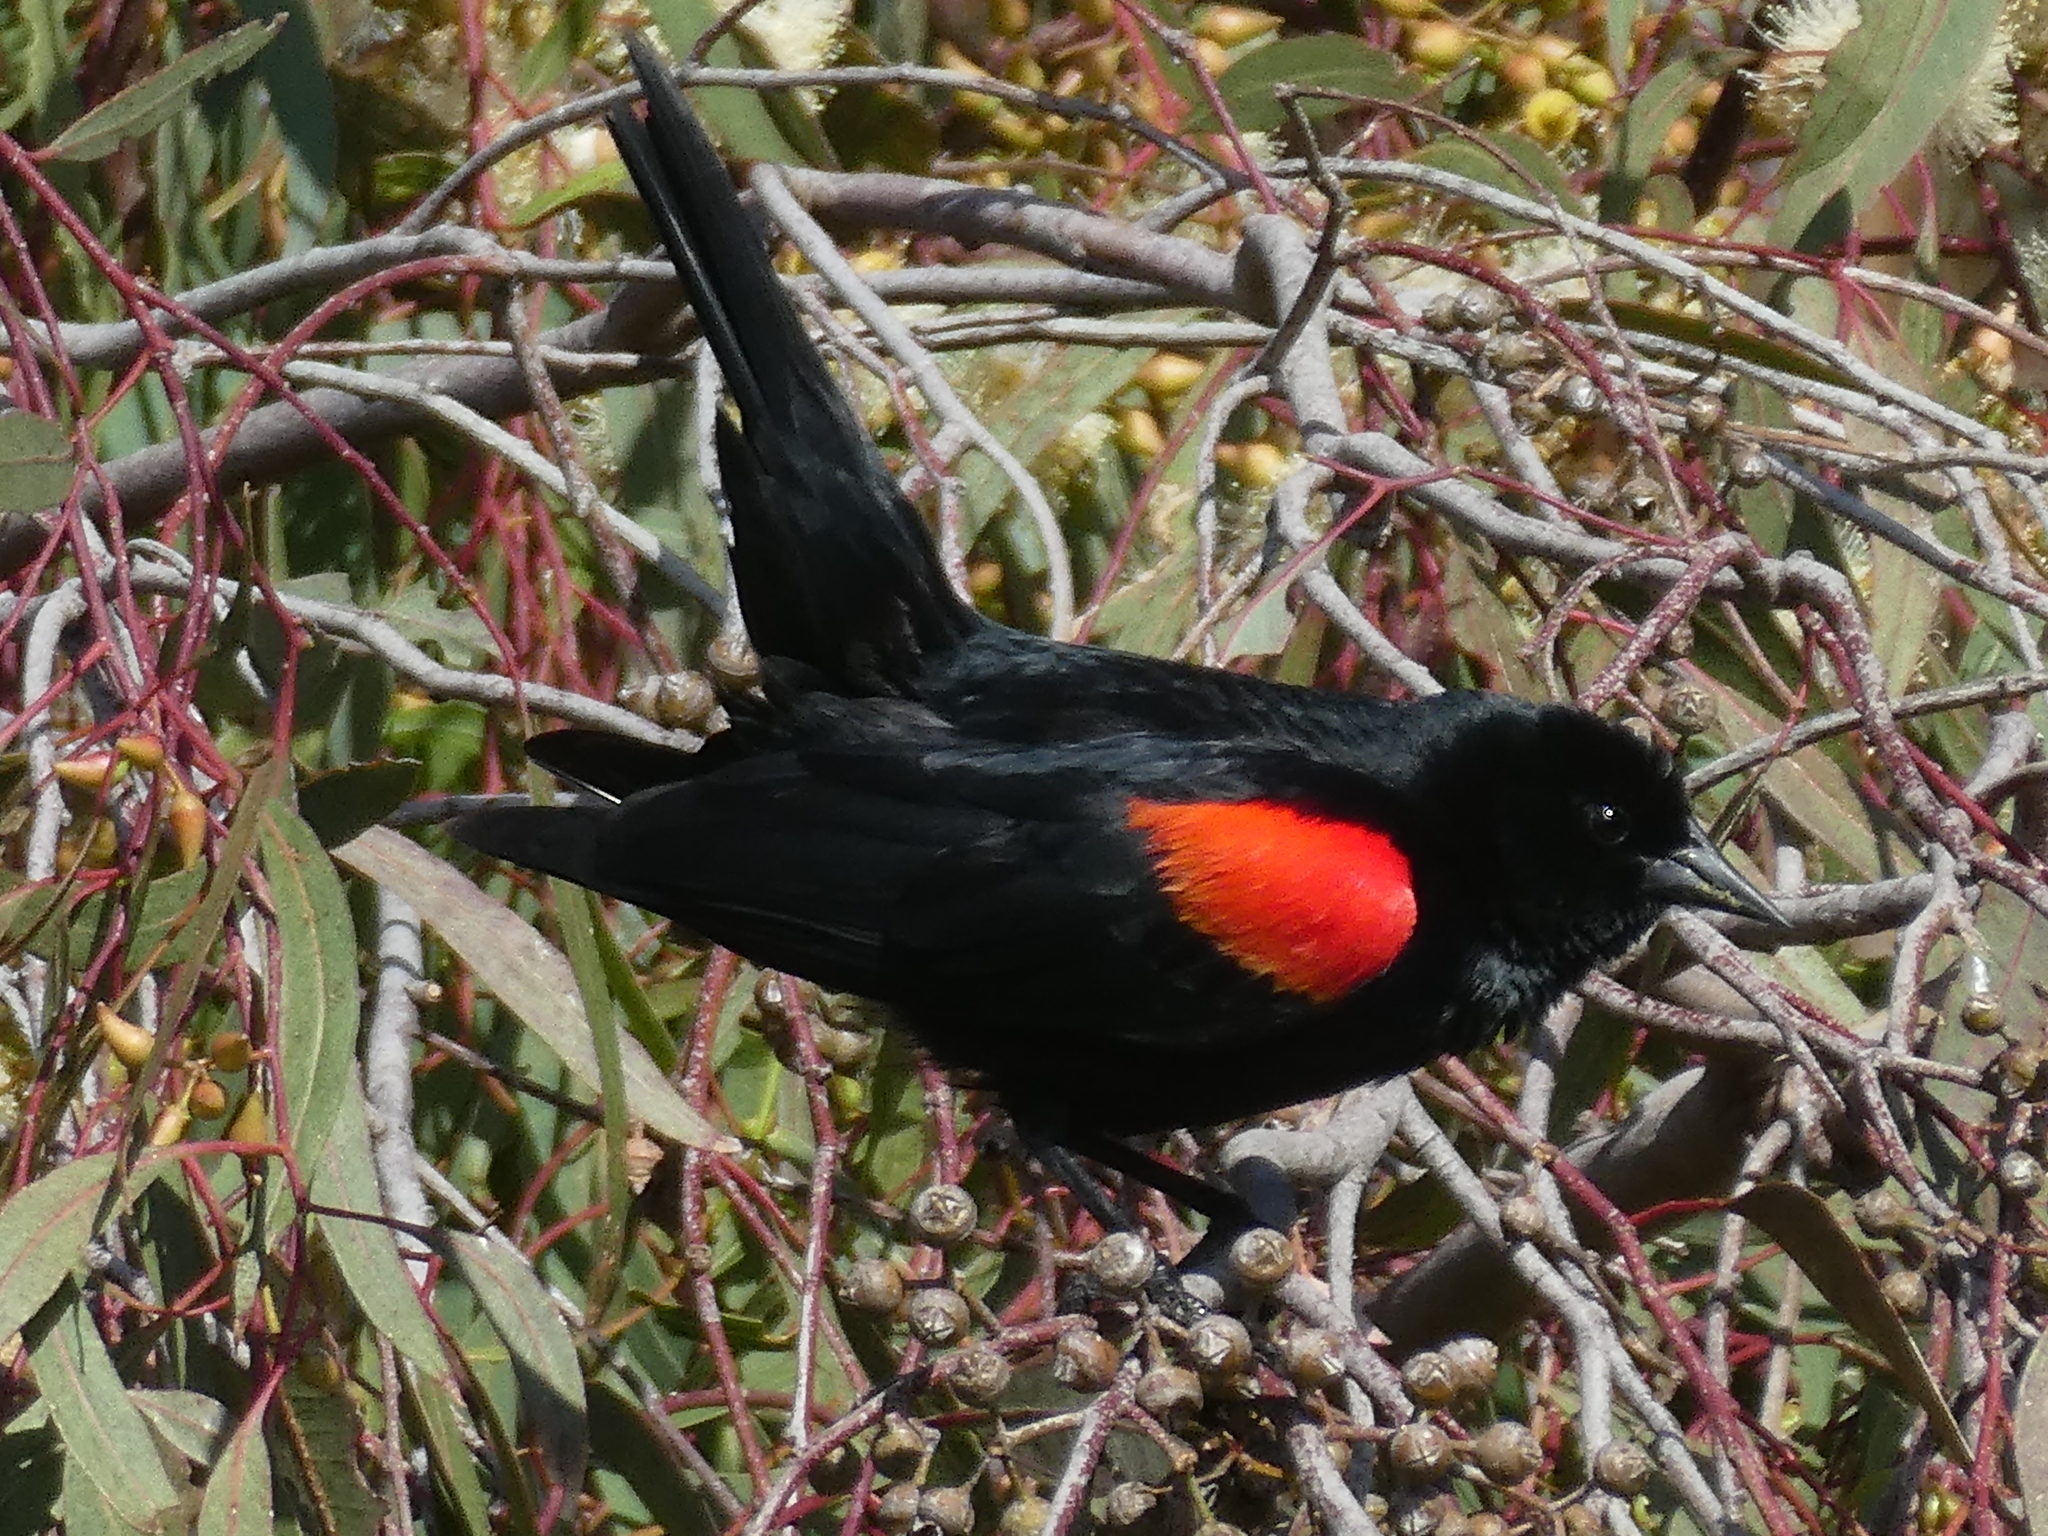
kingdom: Animalia
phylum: Chordata
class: Aves
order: Passeriformes
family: Icteridae
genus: Agelaius
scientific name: Agelaius phoeniceus
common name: Red-winged blackbird
